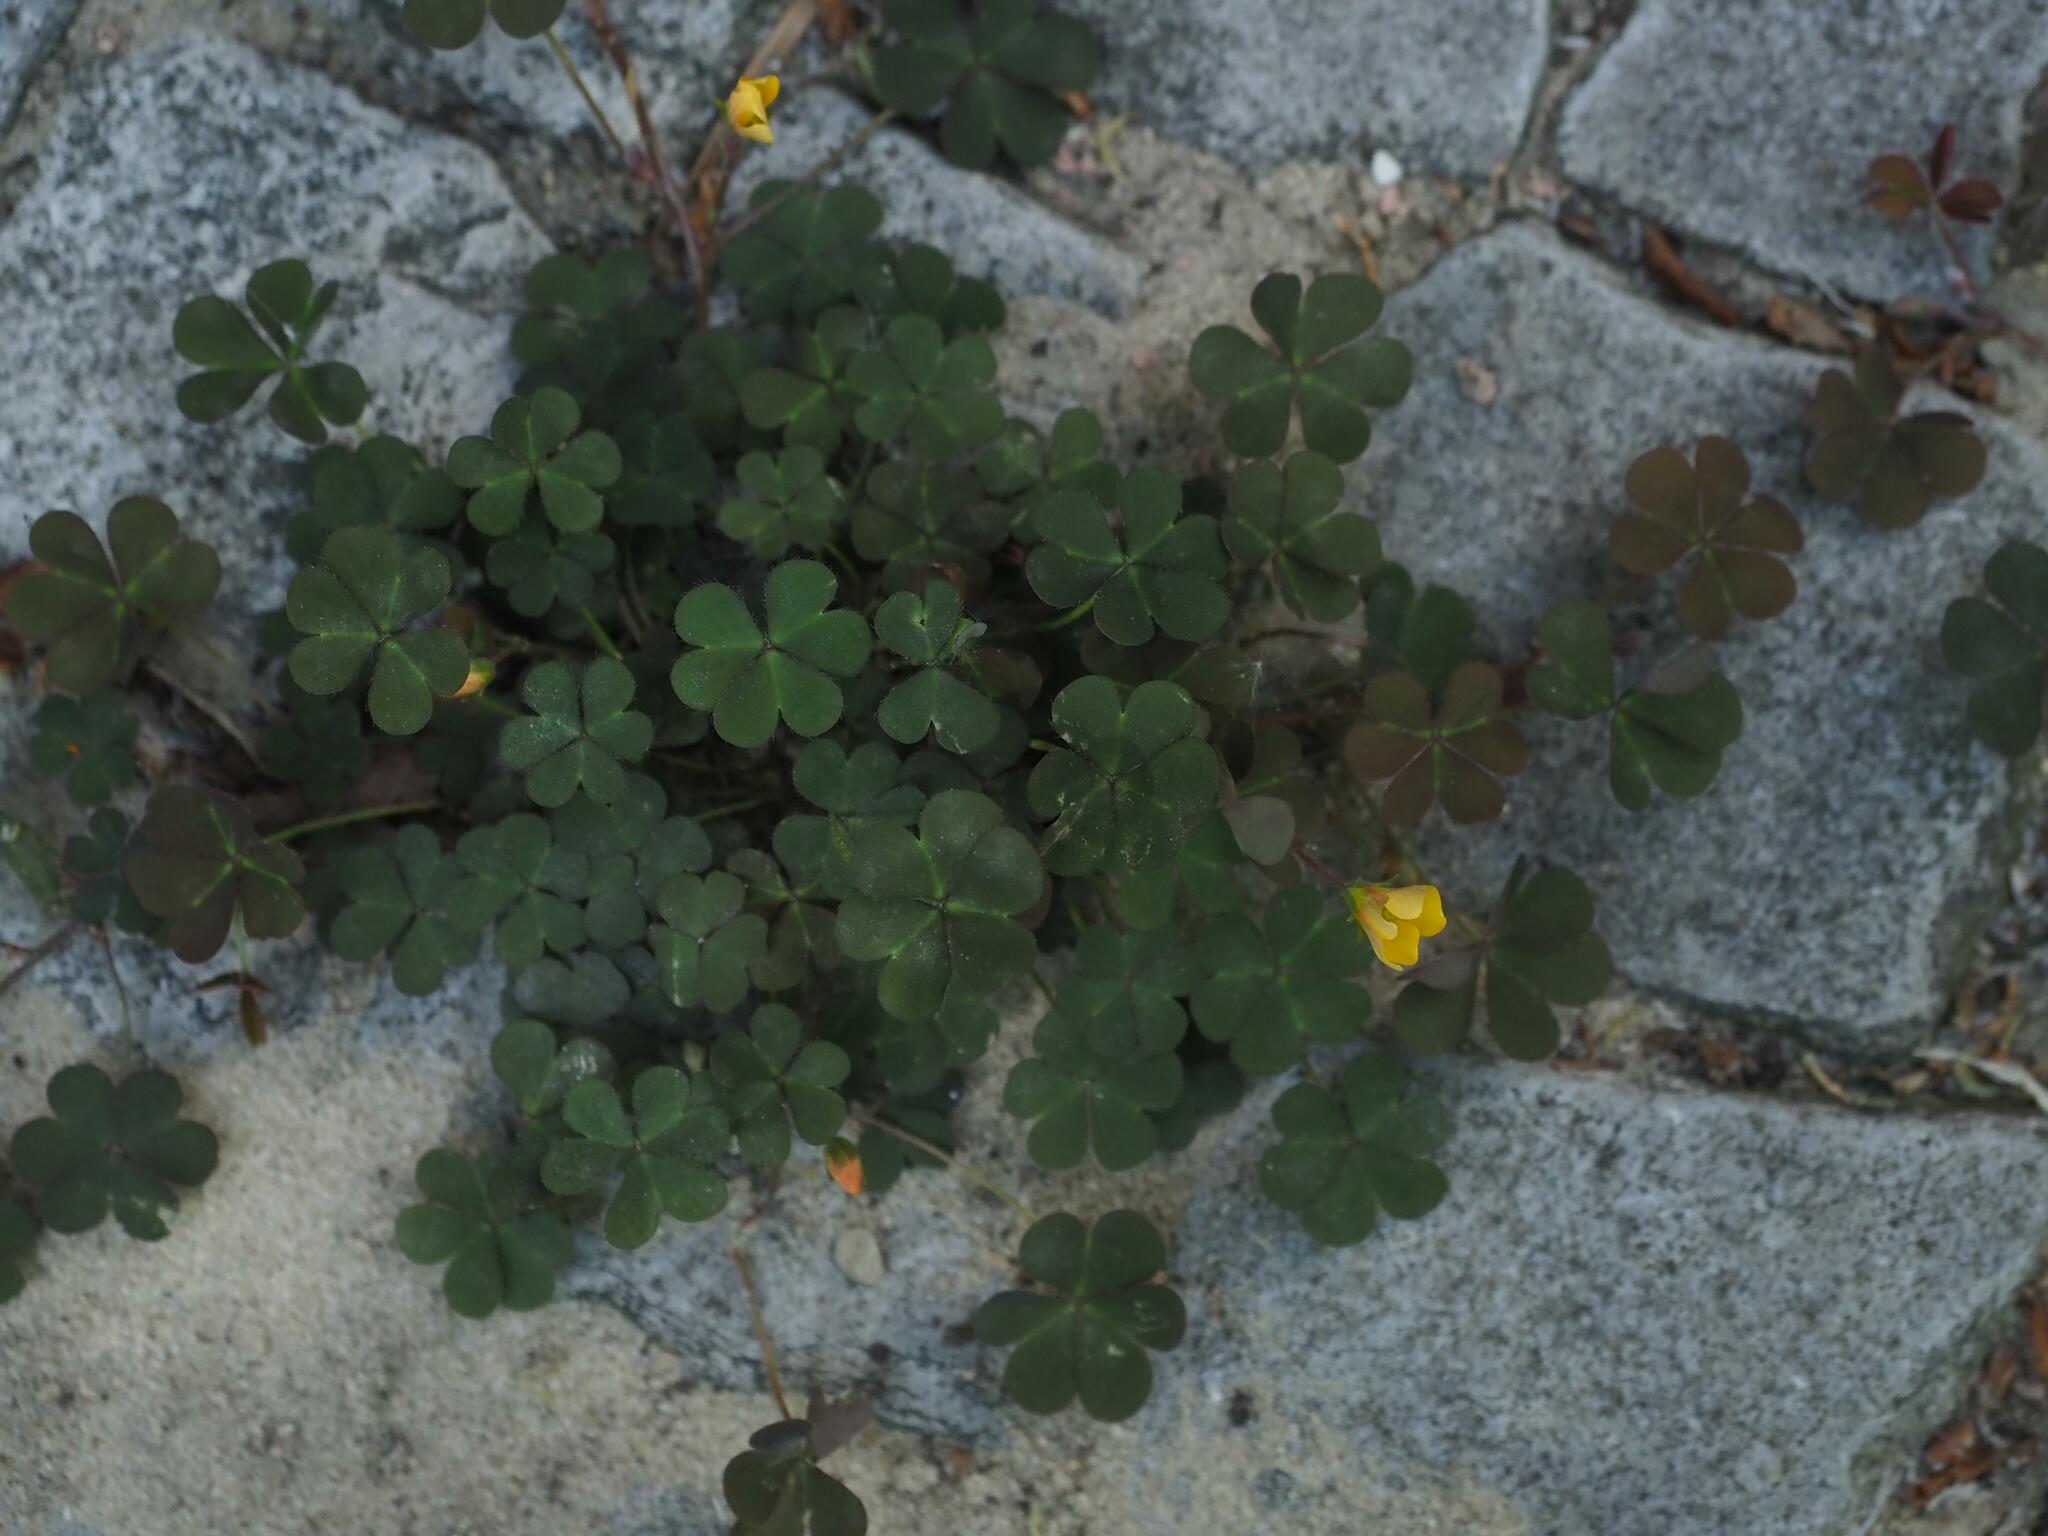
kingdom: Plantae
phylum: Tracheophyta
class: Magnoliopsida
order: Oxalidales
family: Oxalidaceae
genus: Oxalis
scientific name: Oxalis corniculata
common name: Procumbent yellow-sorrel
